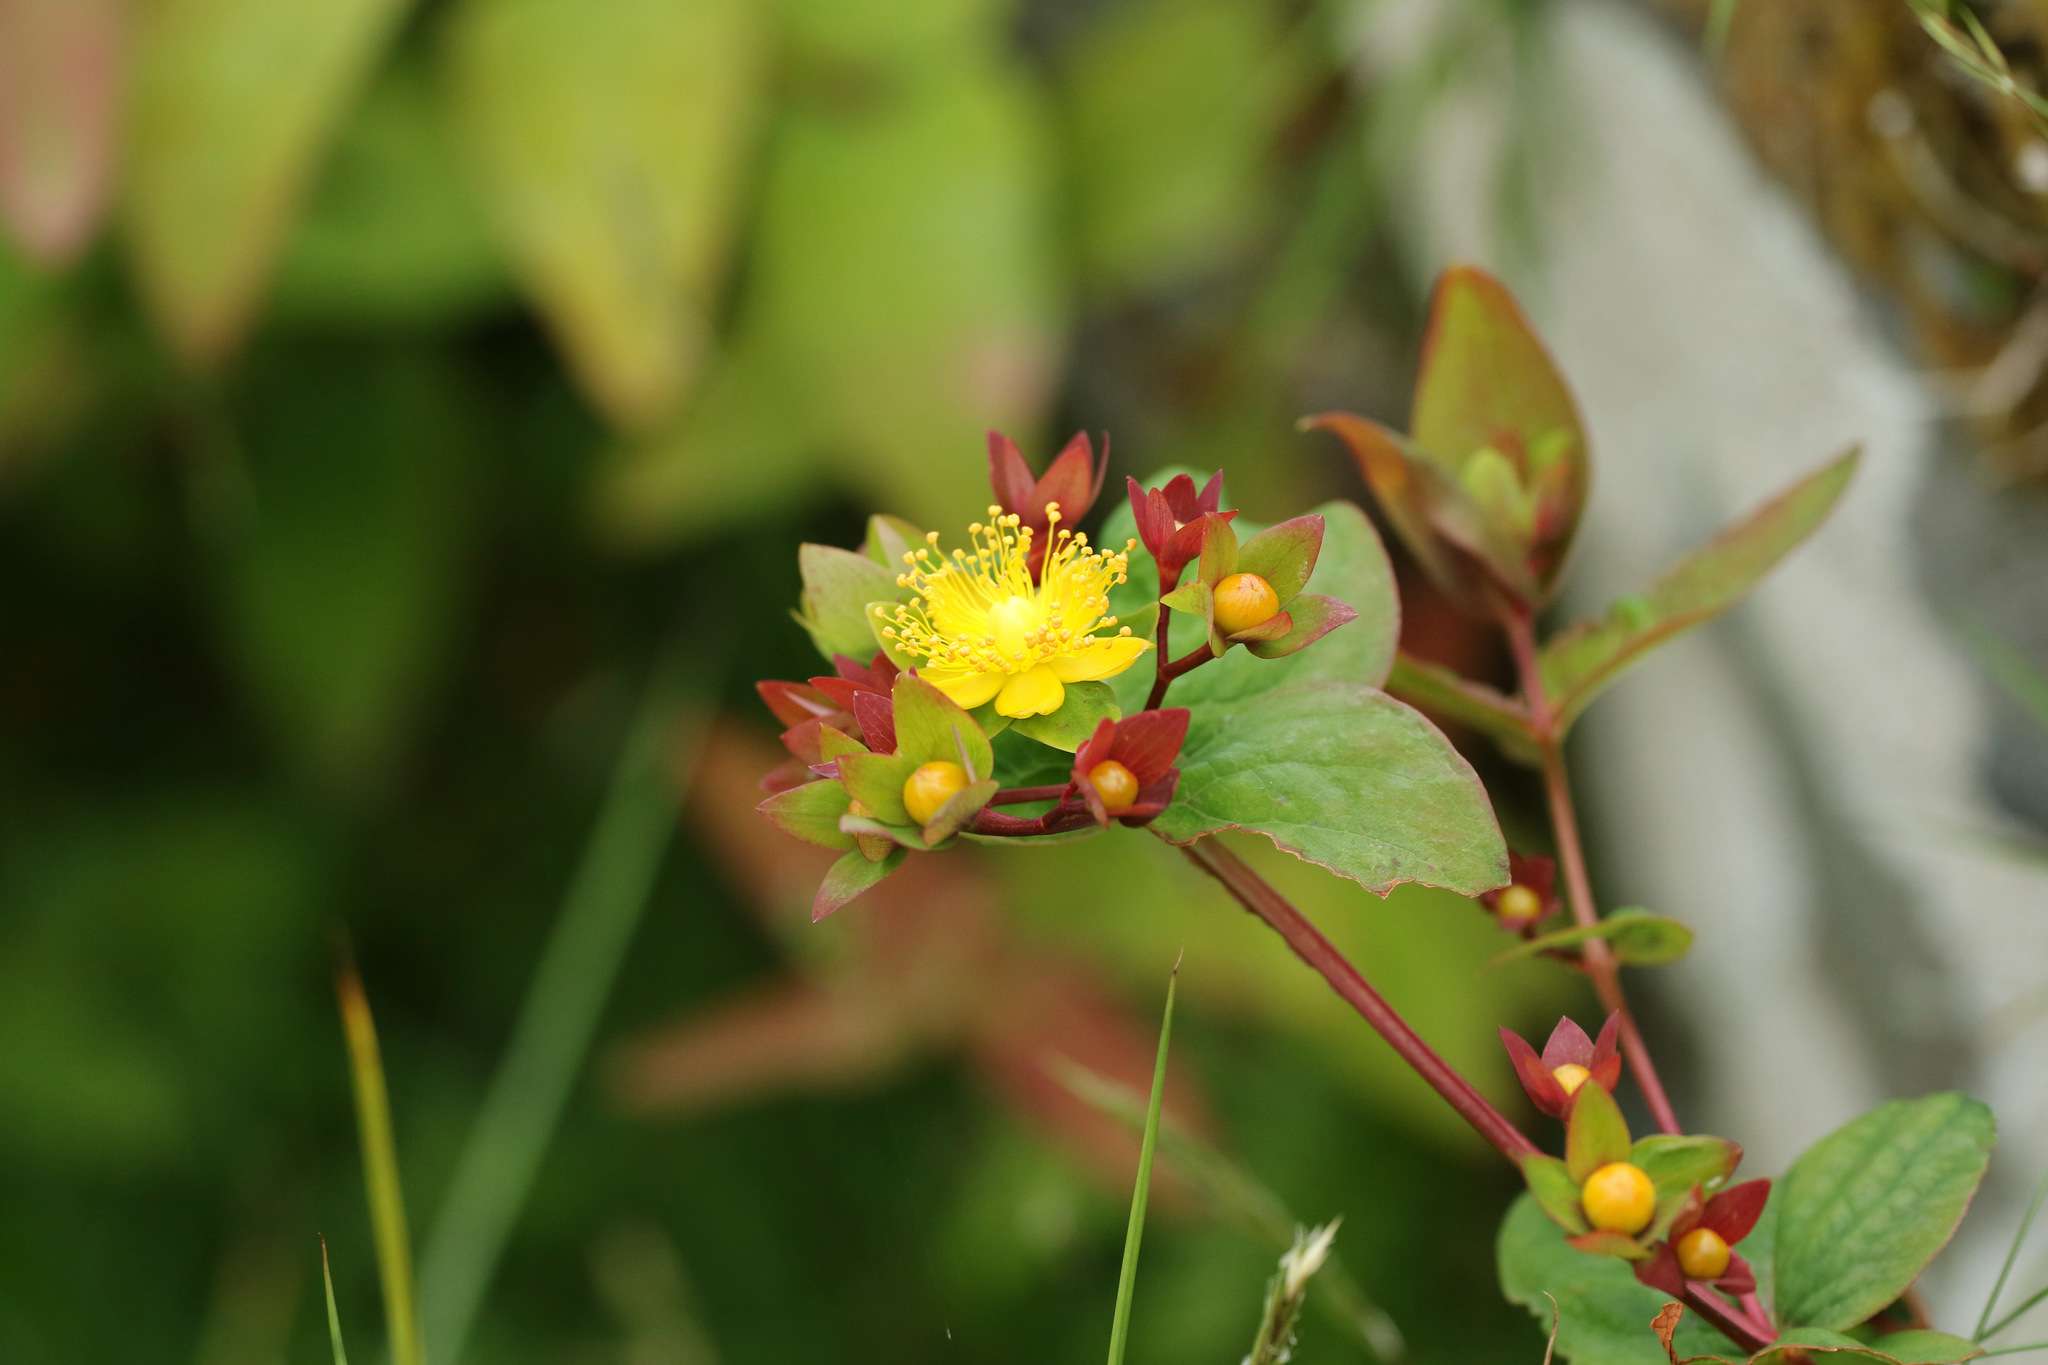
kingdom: Plantae
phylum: Tracheophyta
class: Magnoliopsida
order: Malpighiales
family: Hypericaceae
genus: Hypericum
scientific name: Hypericum androsaemum
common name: Sweet-amber
